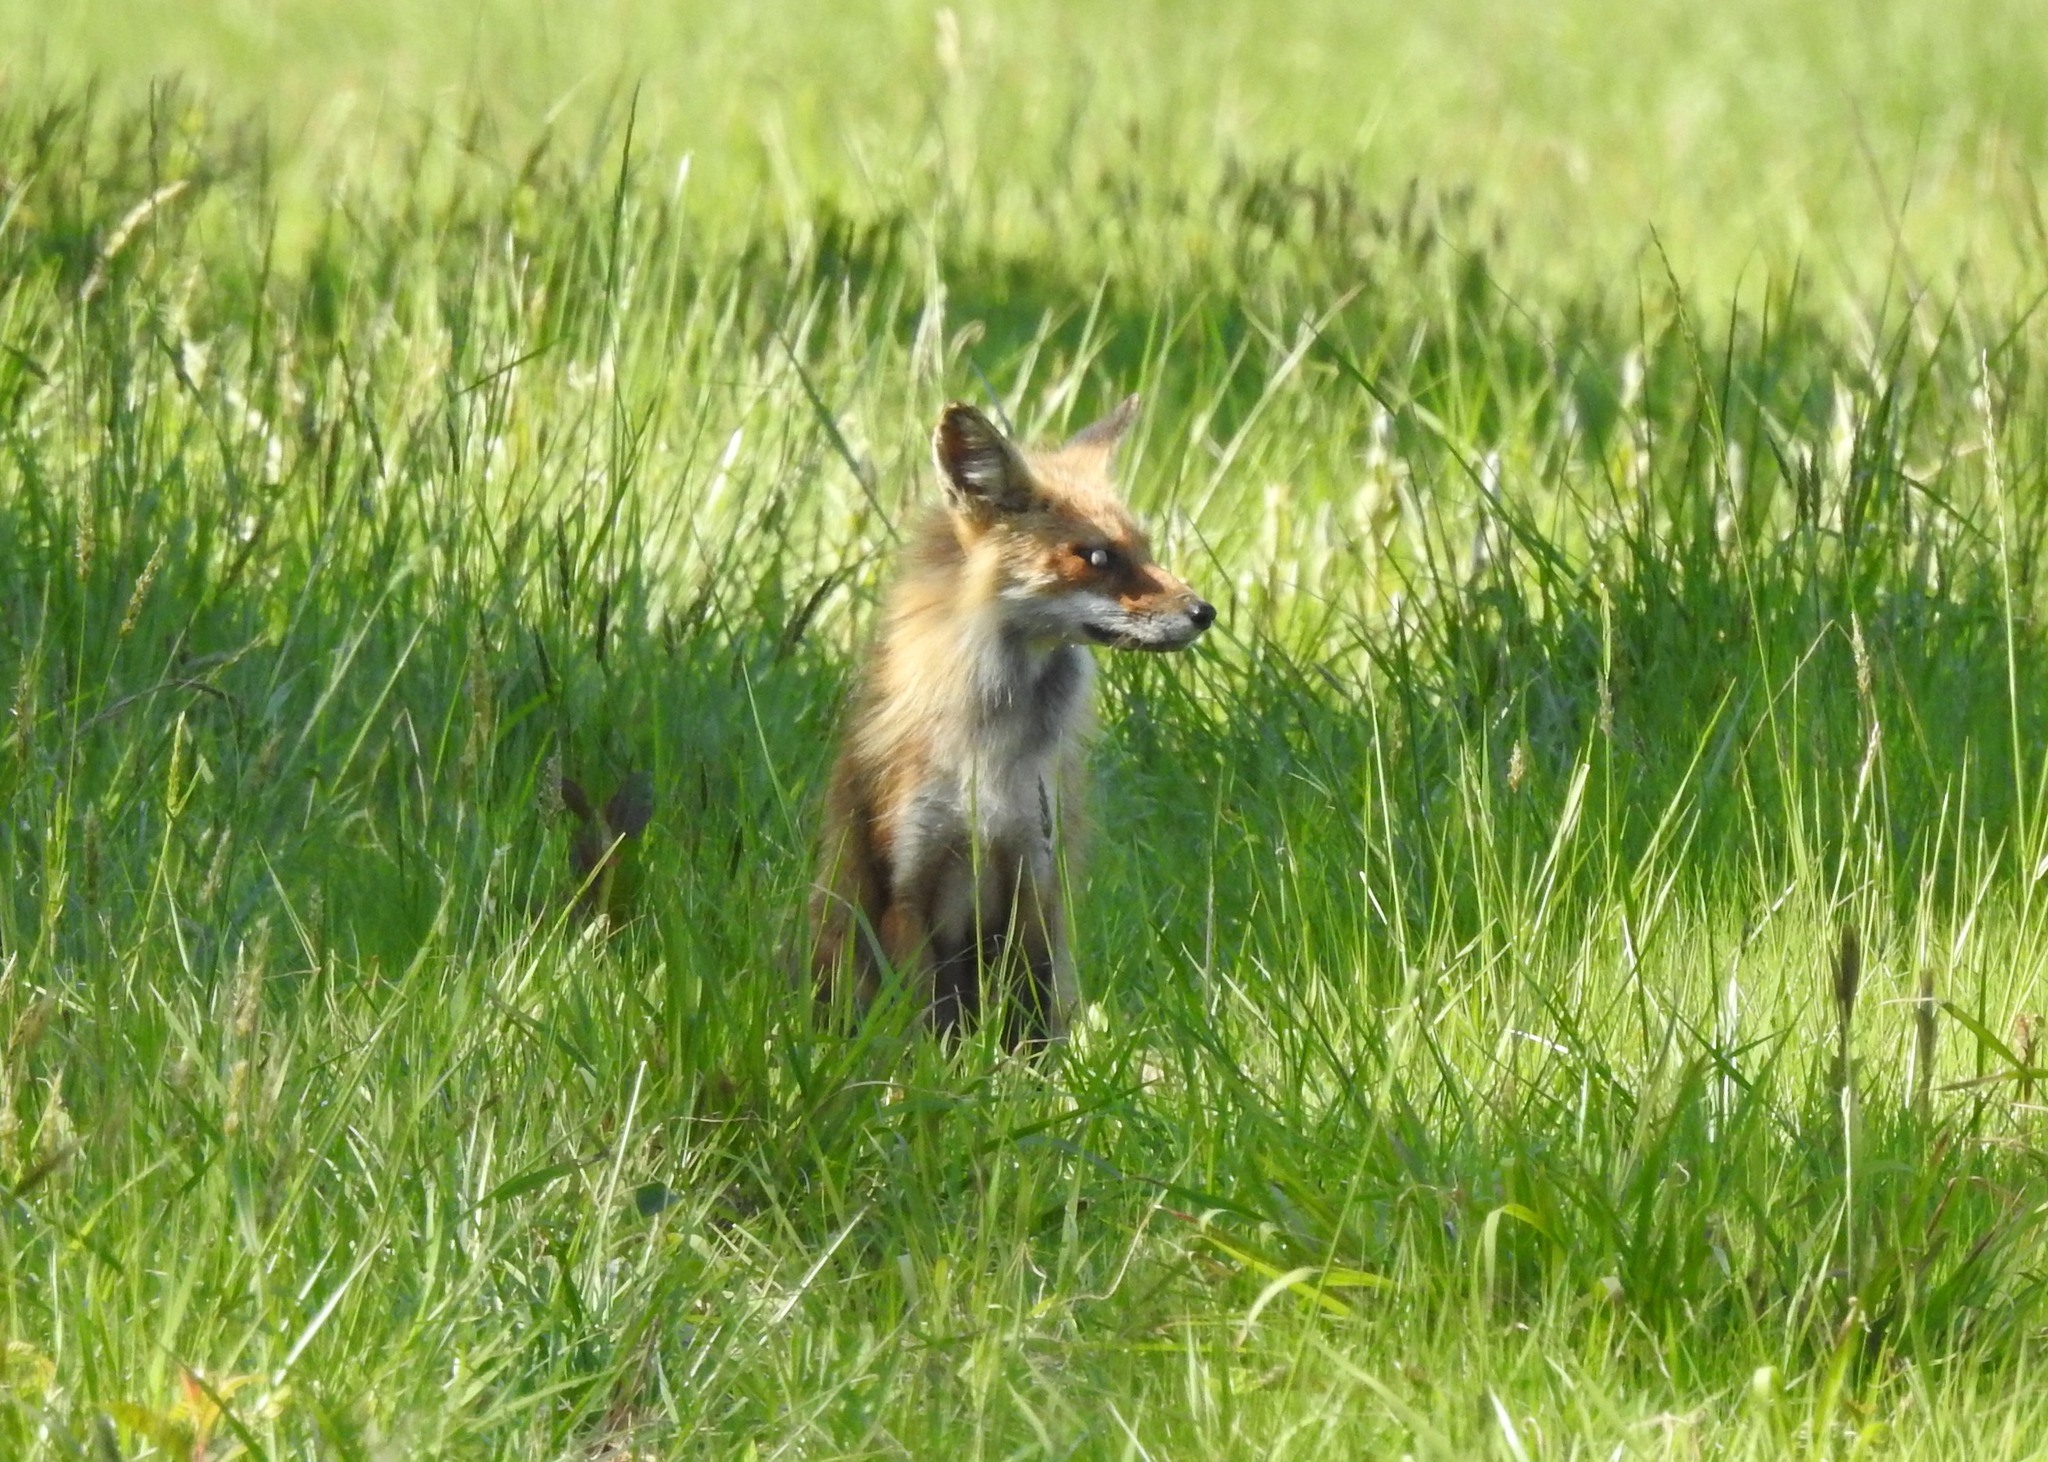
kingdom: Animalia
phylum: Chordata
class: Mammalia
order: Carnivora
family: Canidae
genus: Vulpes
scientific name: Vulpes vulpes
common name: Red fox
